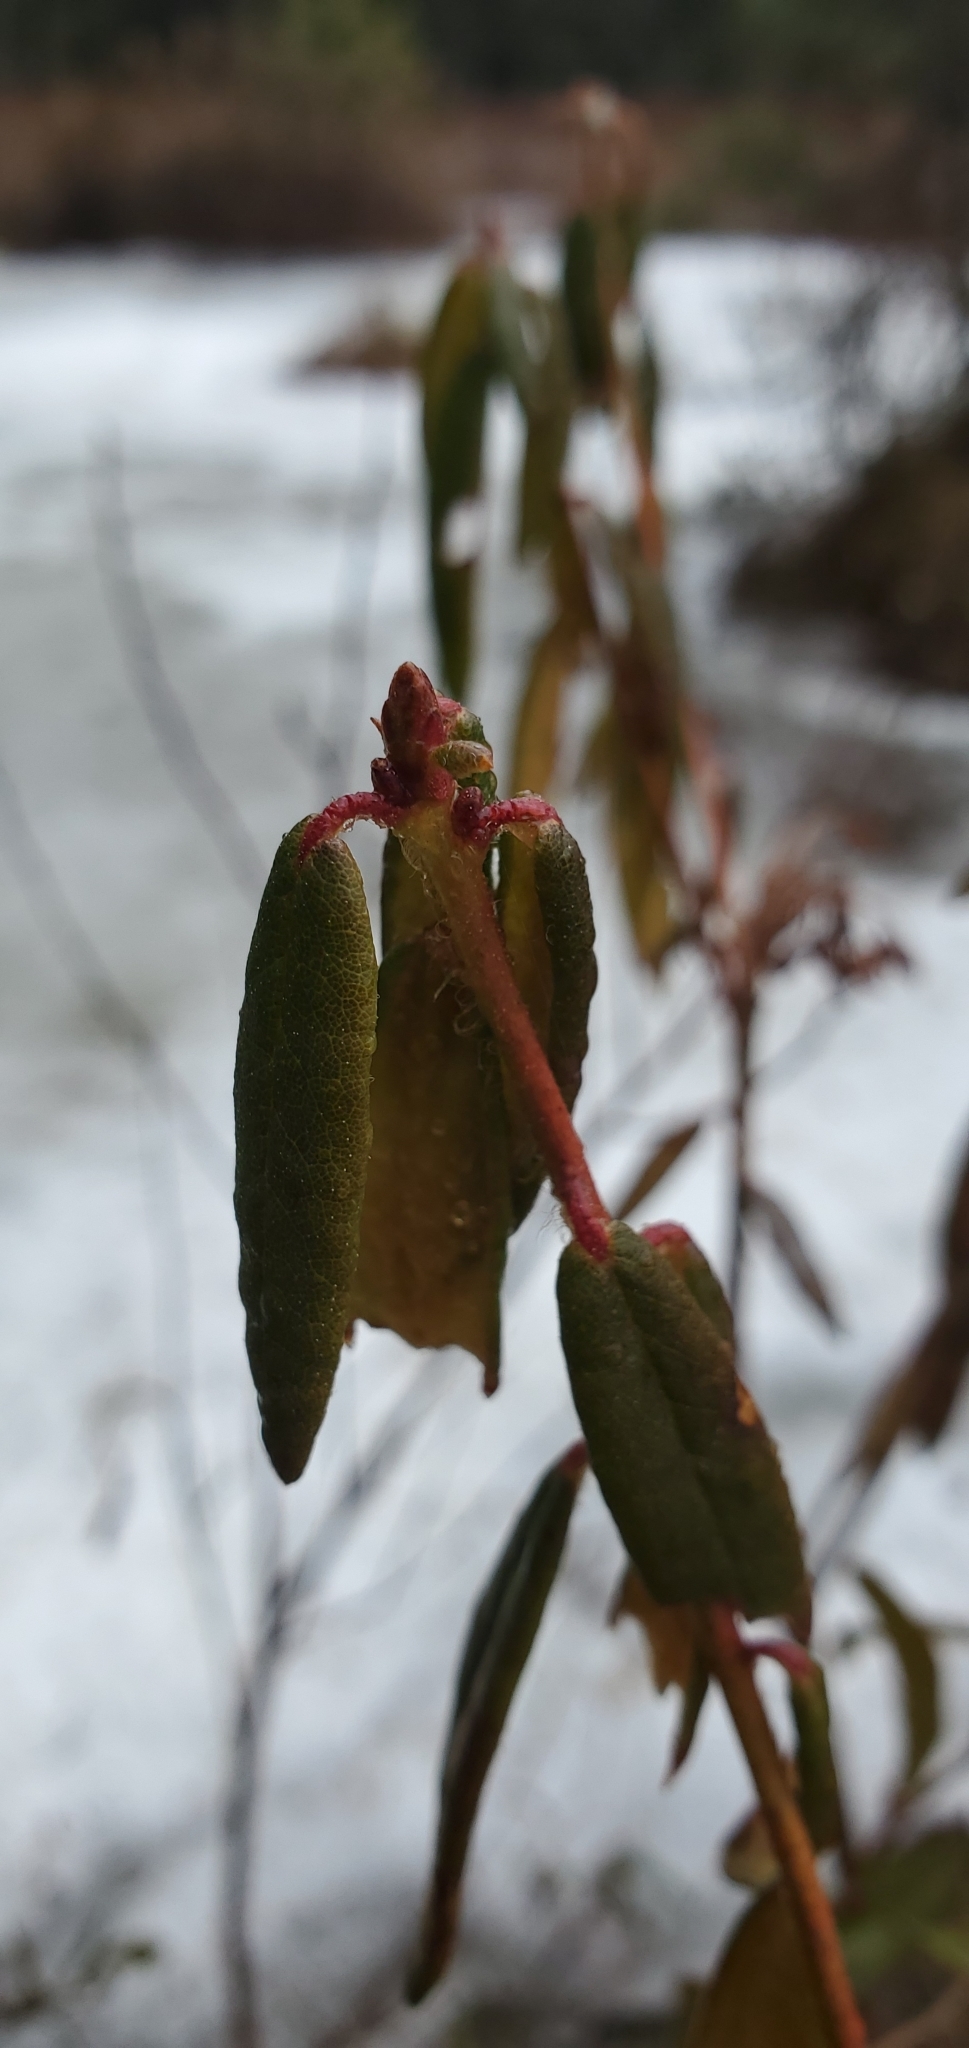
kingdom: Plantae
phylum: Tracheophyta
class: Magnoliopsida
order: Ericales
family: Ericaceae
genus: Rhododendron
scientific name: Rhododendron groenlandicum
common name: Bog labrador tea
